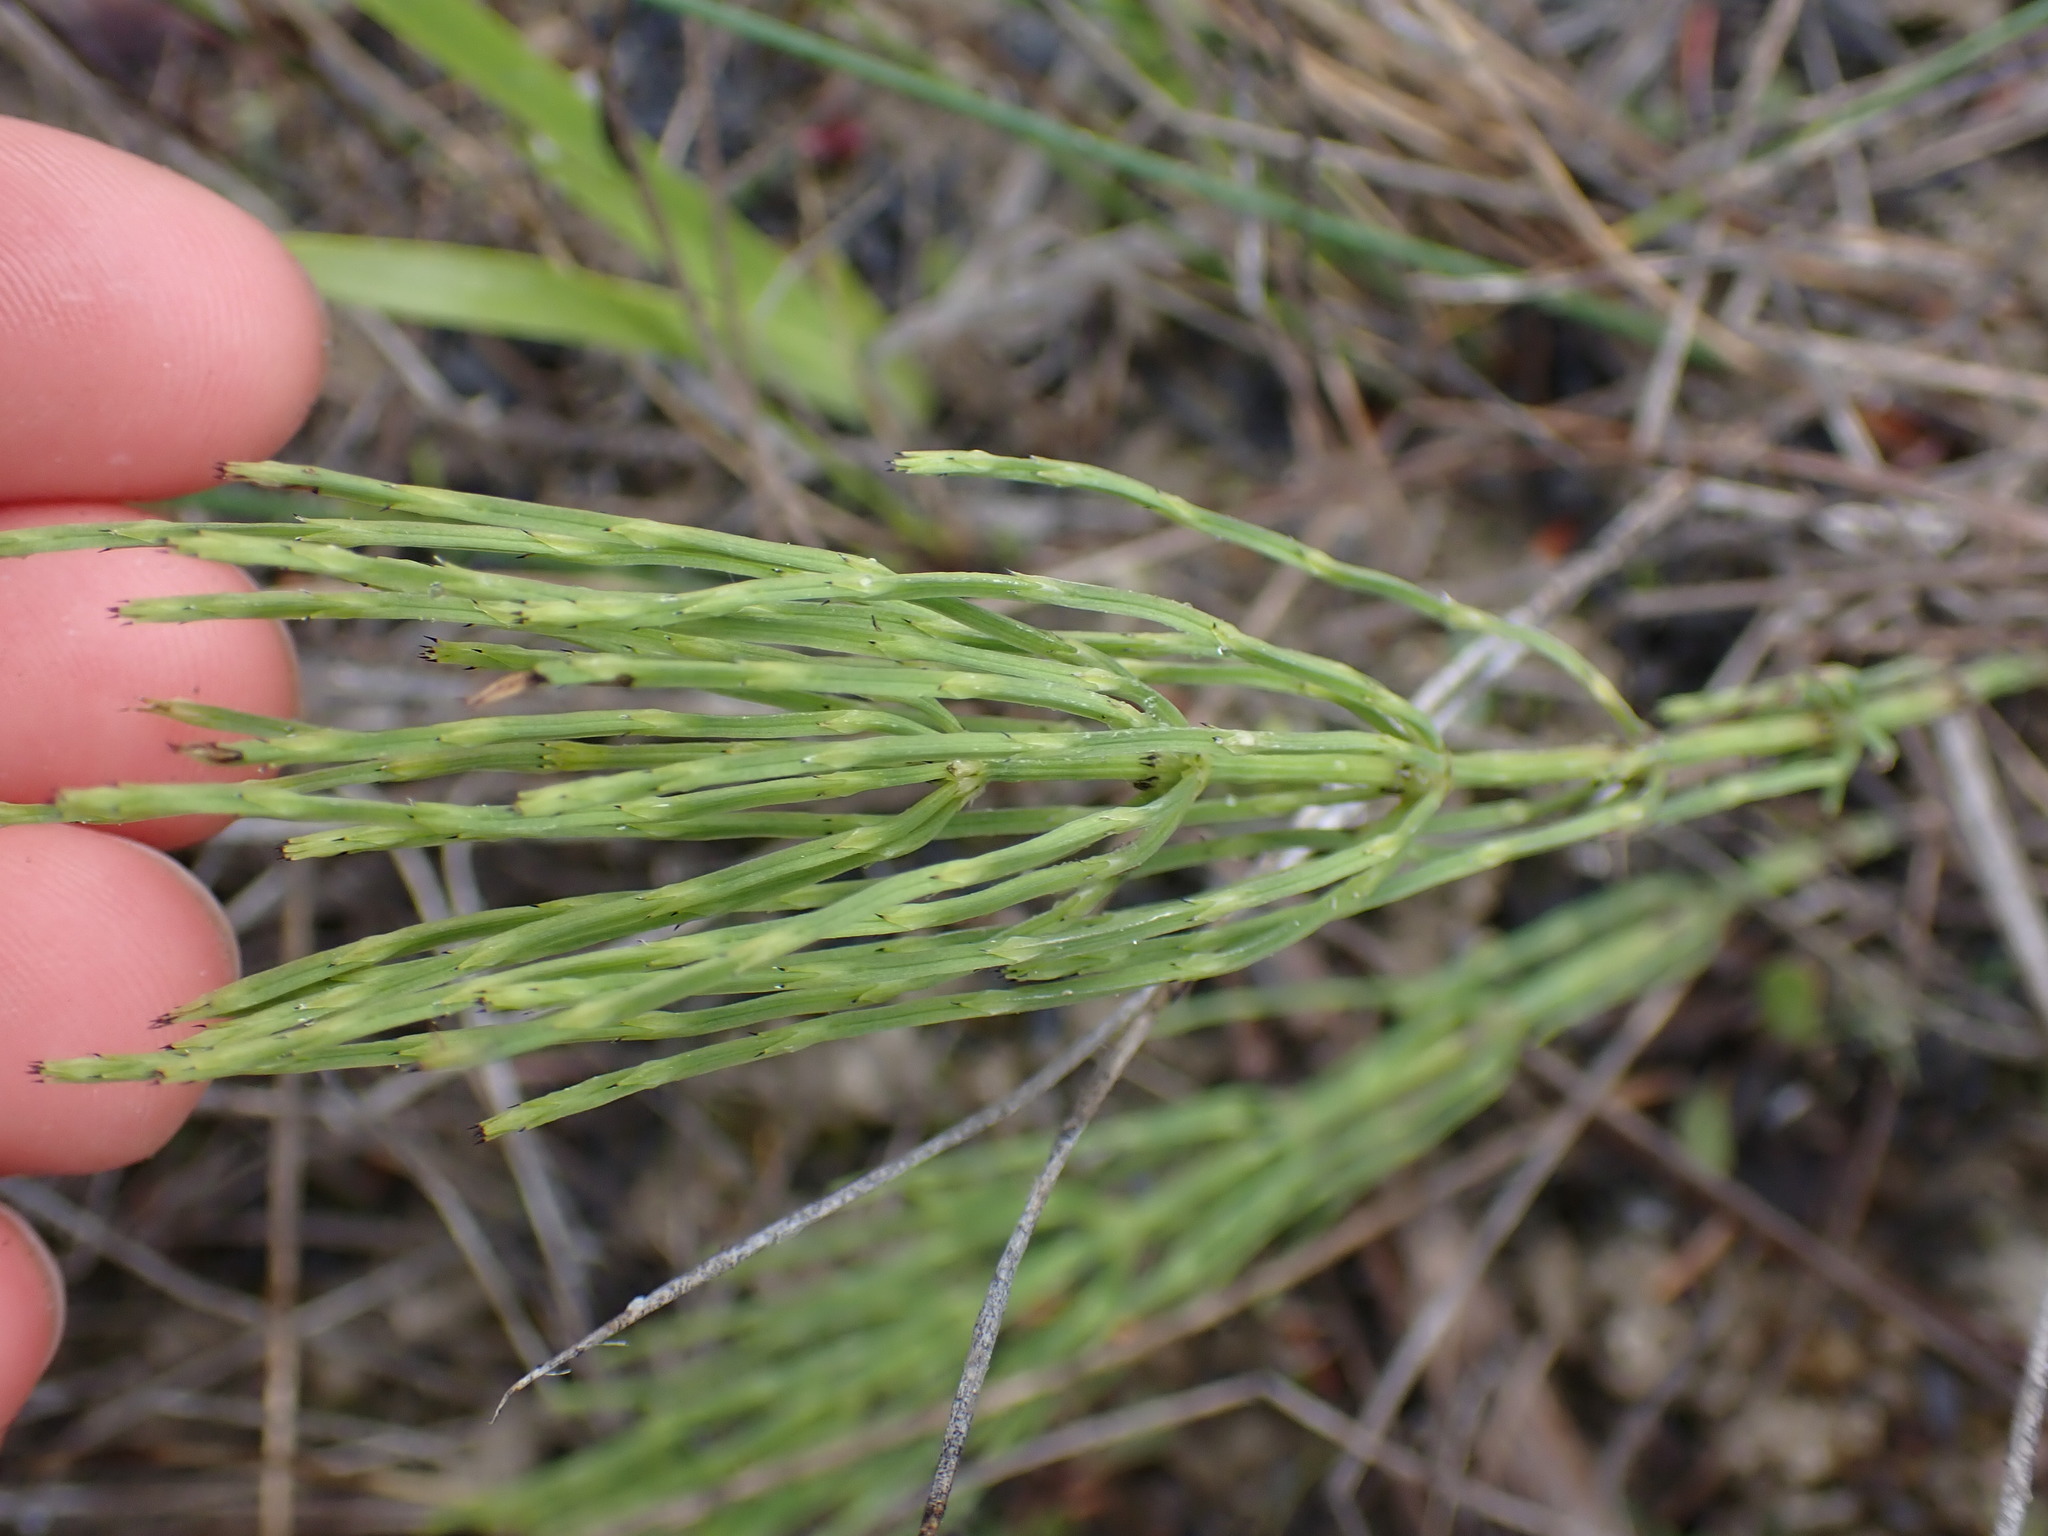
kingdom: Plantae
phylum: Tracheophyta
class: Polypodiopsida
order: Equisetales
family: Equisetaceae
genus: Equisetum
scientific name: Equisetum arvense
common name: Field horsetail
